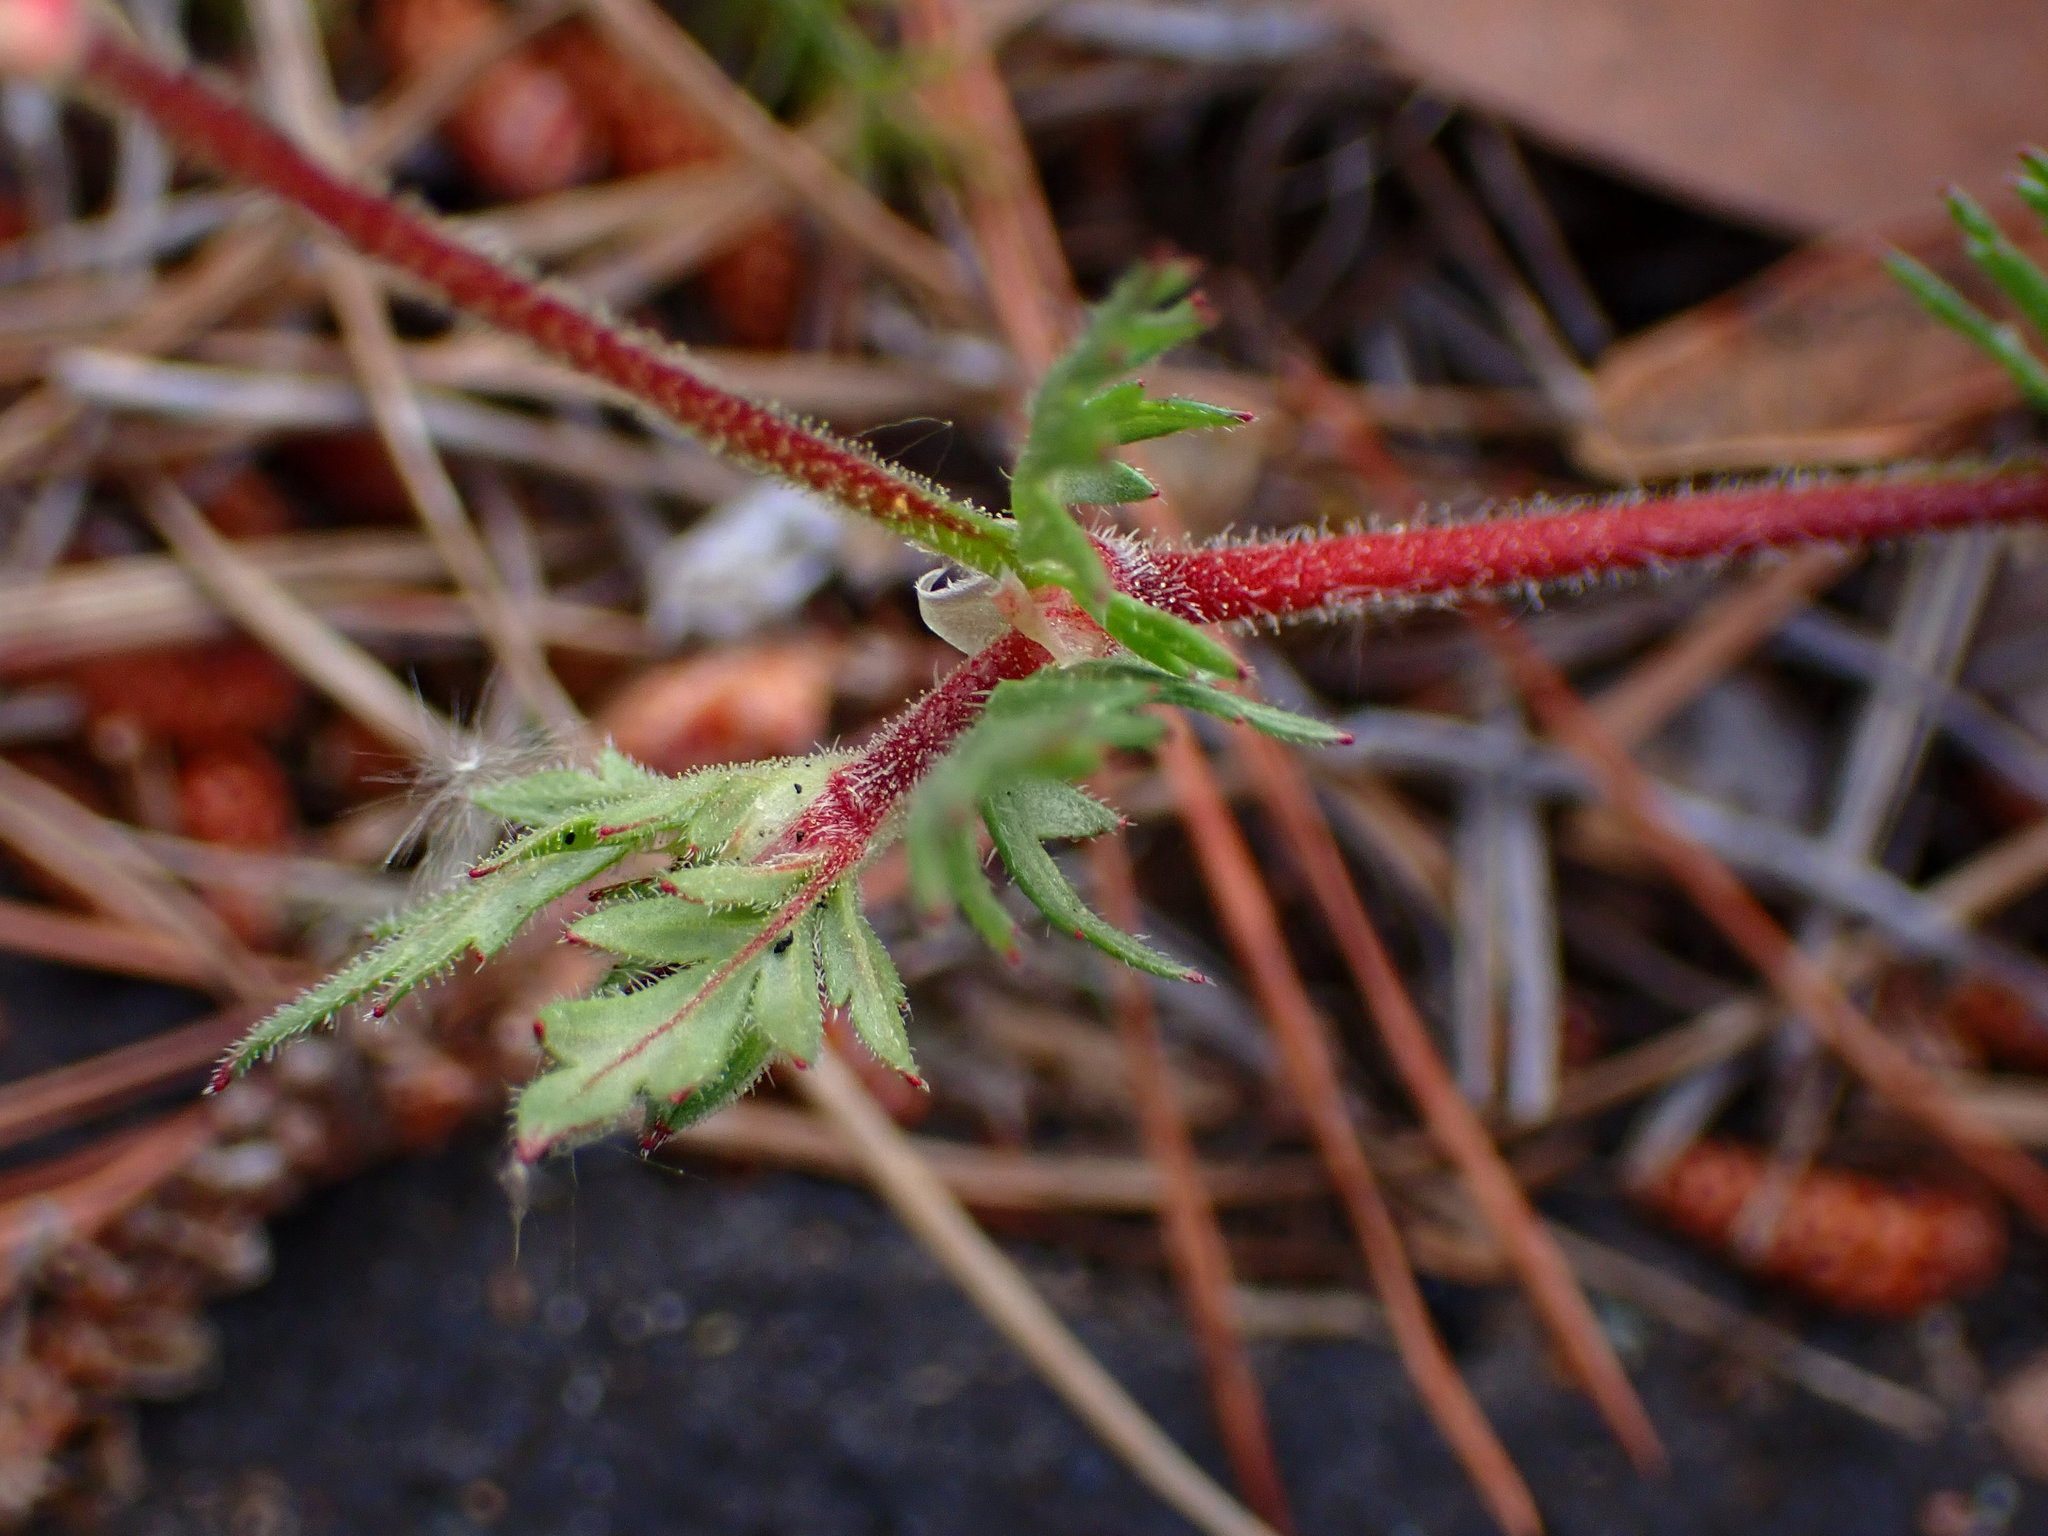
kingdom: Plantae
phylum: Tracheophyta
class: Magnoliopsida
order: Geraniales
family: Geraniaceae
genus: Erodium
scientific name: Erodium botrys
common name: Mediterranean stork's-bill
